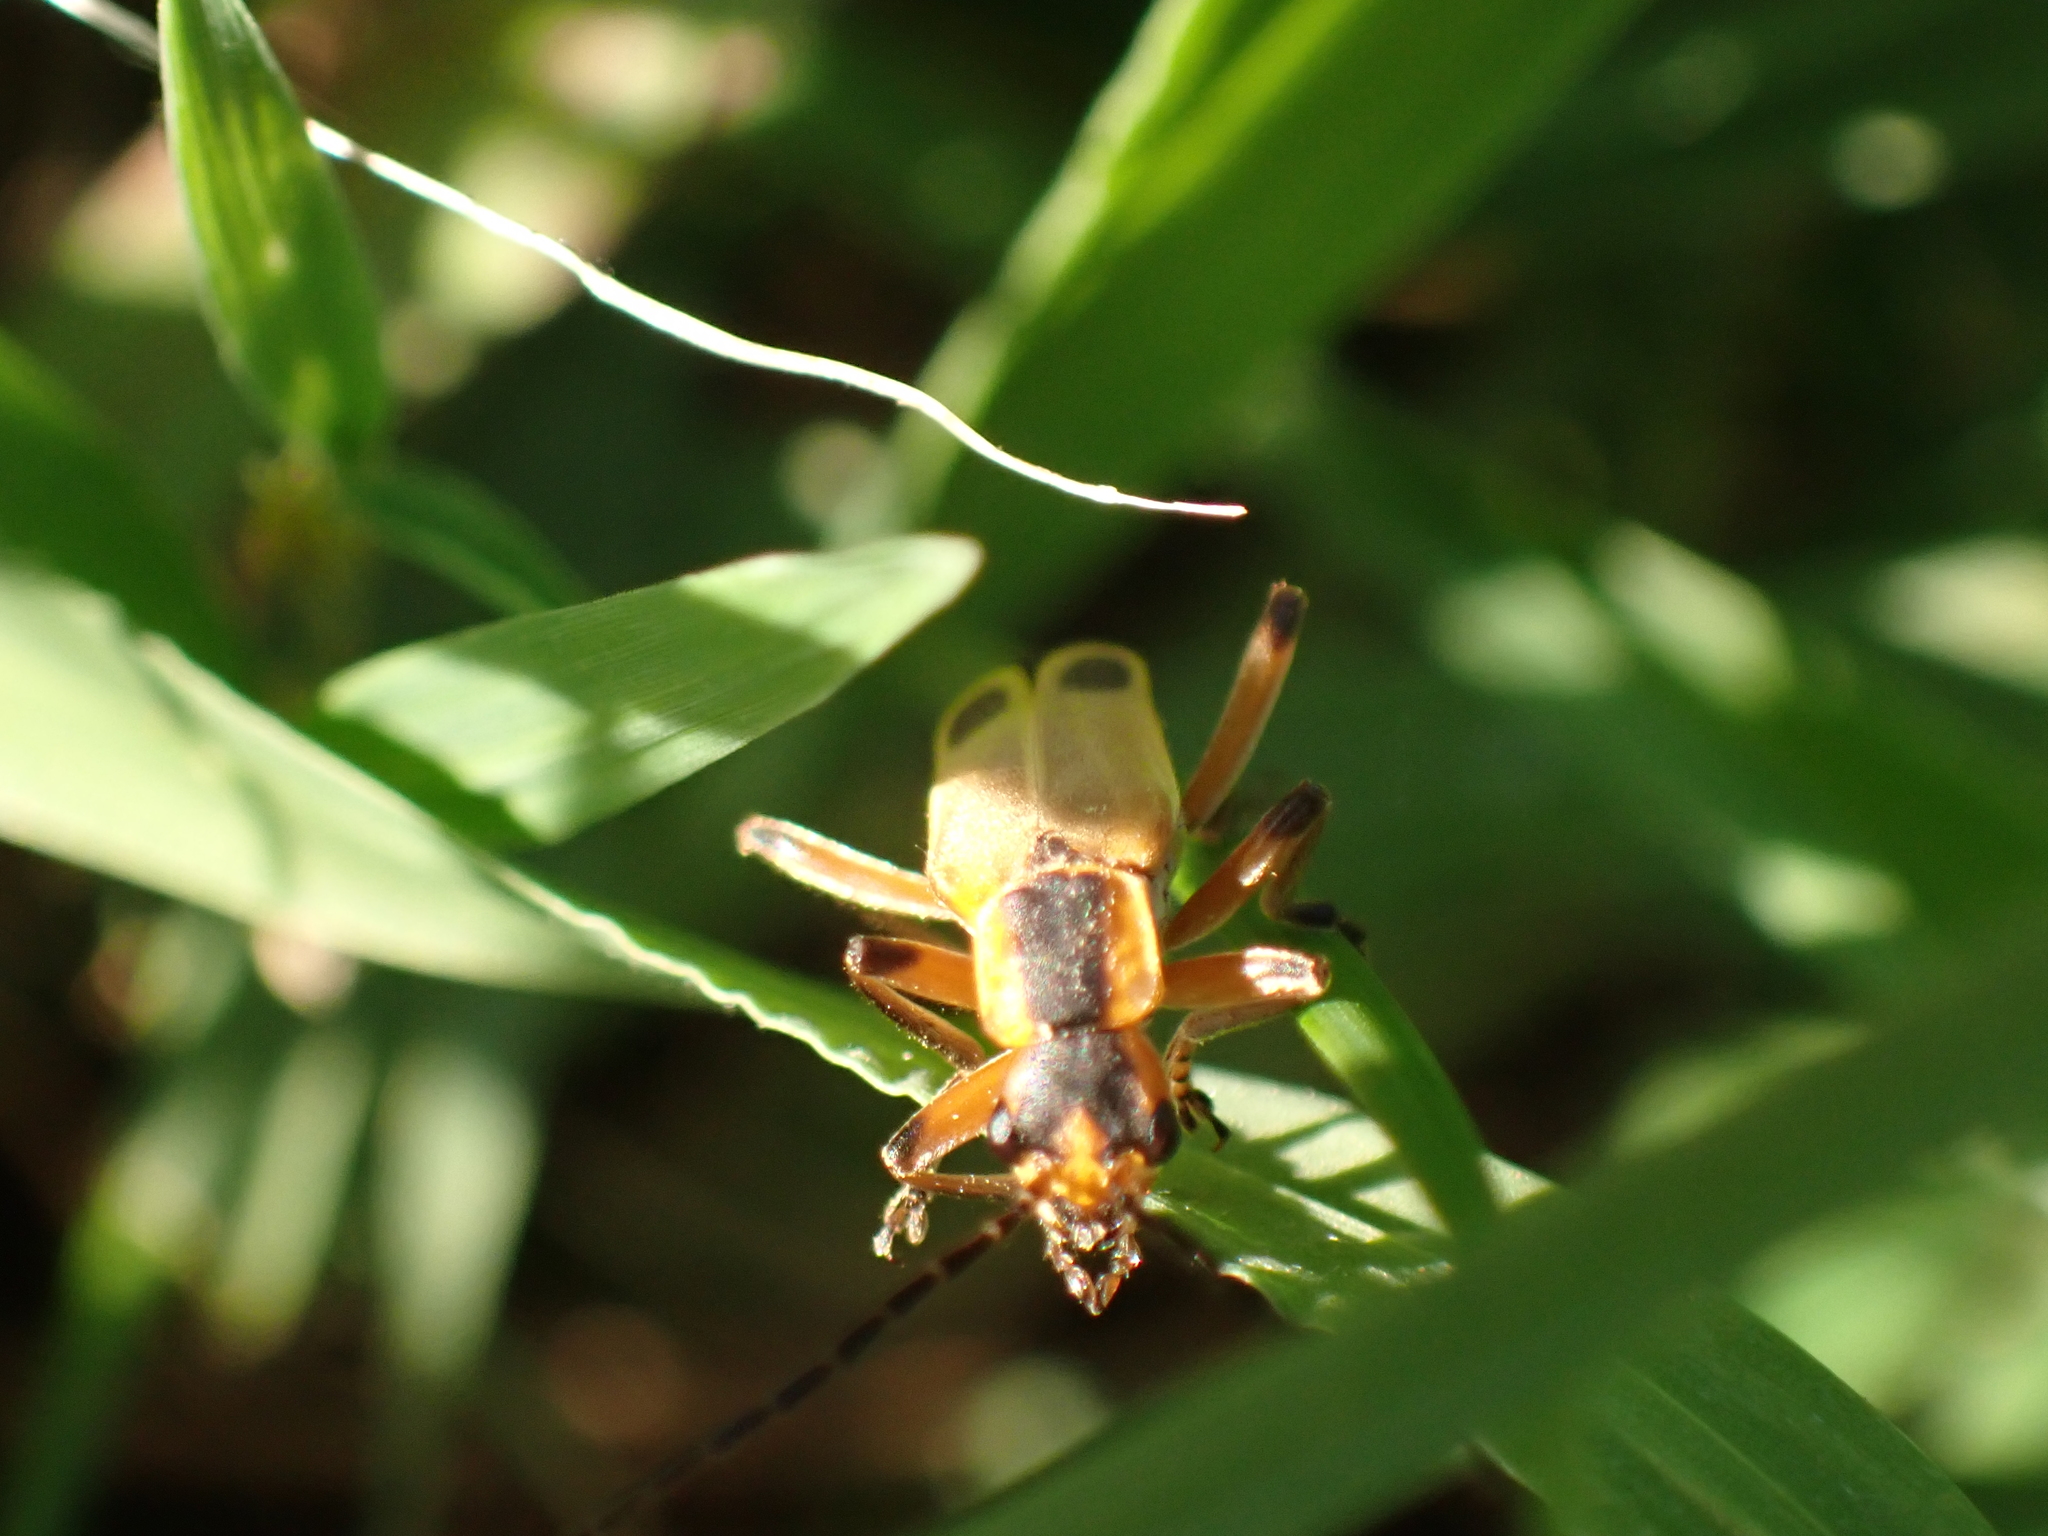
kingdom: Animalia
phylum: Arthropoda
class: Insecta
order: Coleoptera
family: Cantharidae
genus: Chauliognathus
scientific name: Chauliognathus marginatus
